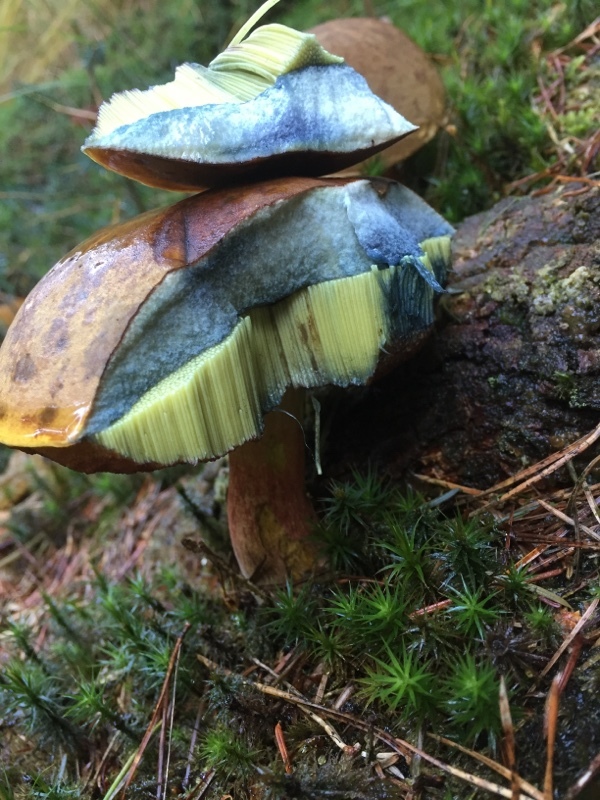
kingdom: Fungi
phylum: Basidiomycota
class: Agaricomycetes
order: Boletales
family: Boletaceae
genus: Neoboletus
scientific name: Neoboletus erythropus
